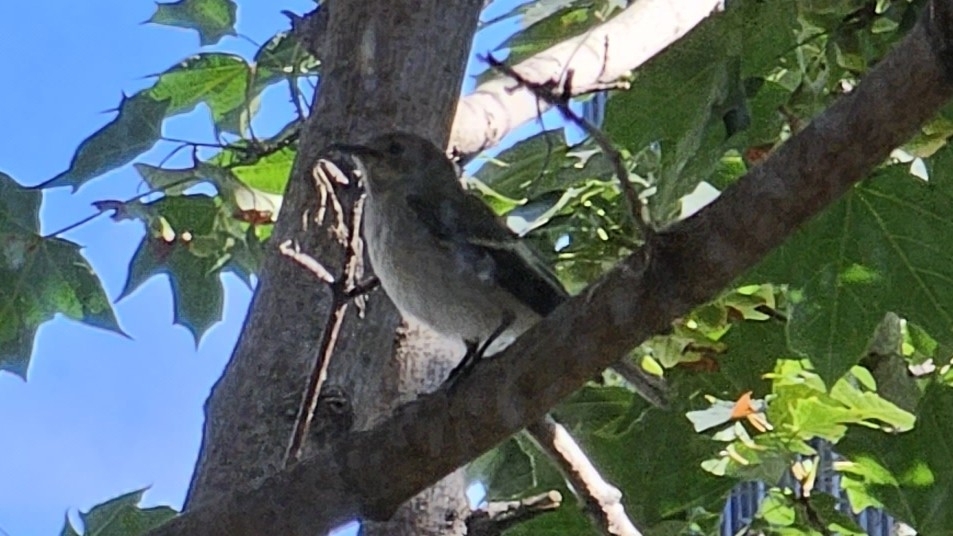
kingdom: Animalia
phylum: Chordata
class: Aves
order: Passeriformes
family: Muscicapidae
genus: Ficedula
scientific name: Ficedula hypoleuca
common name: European pied flycatcher
